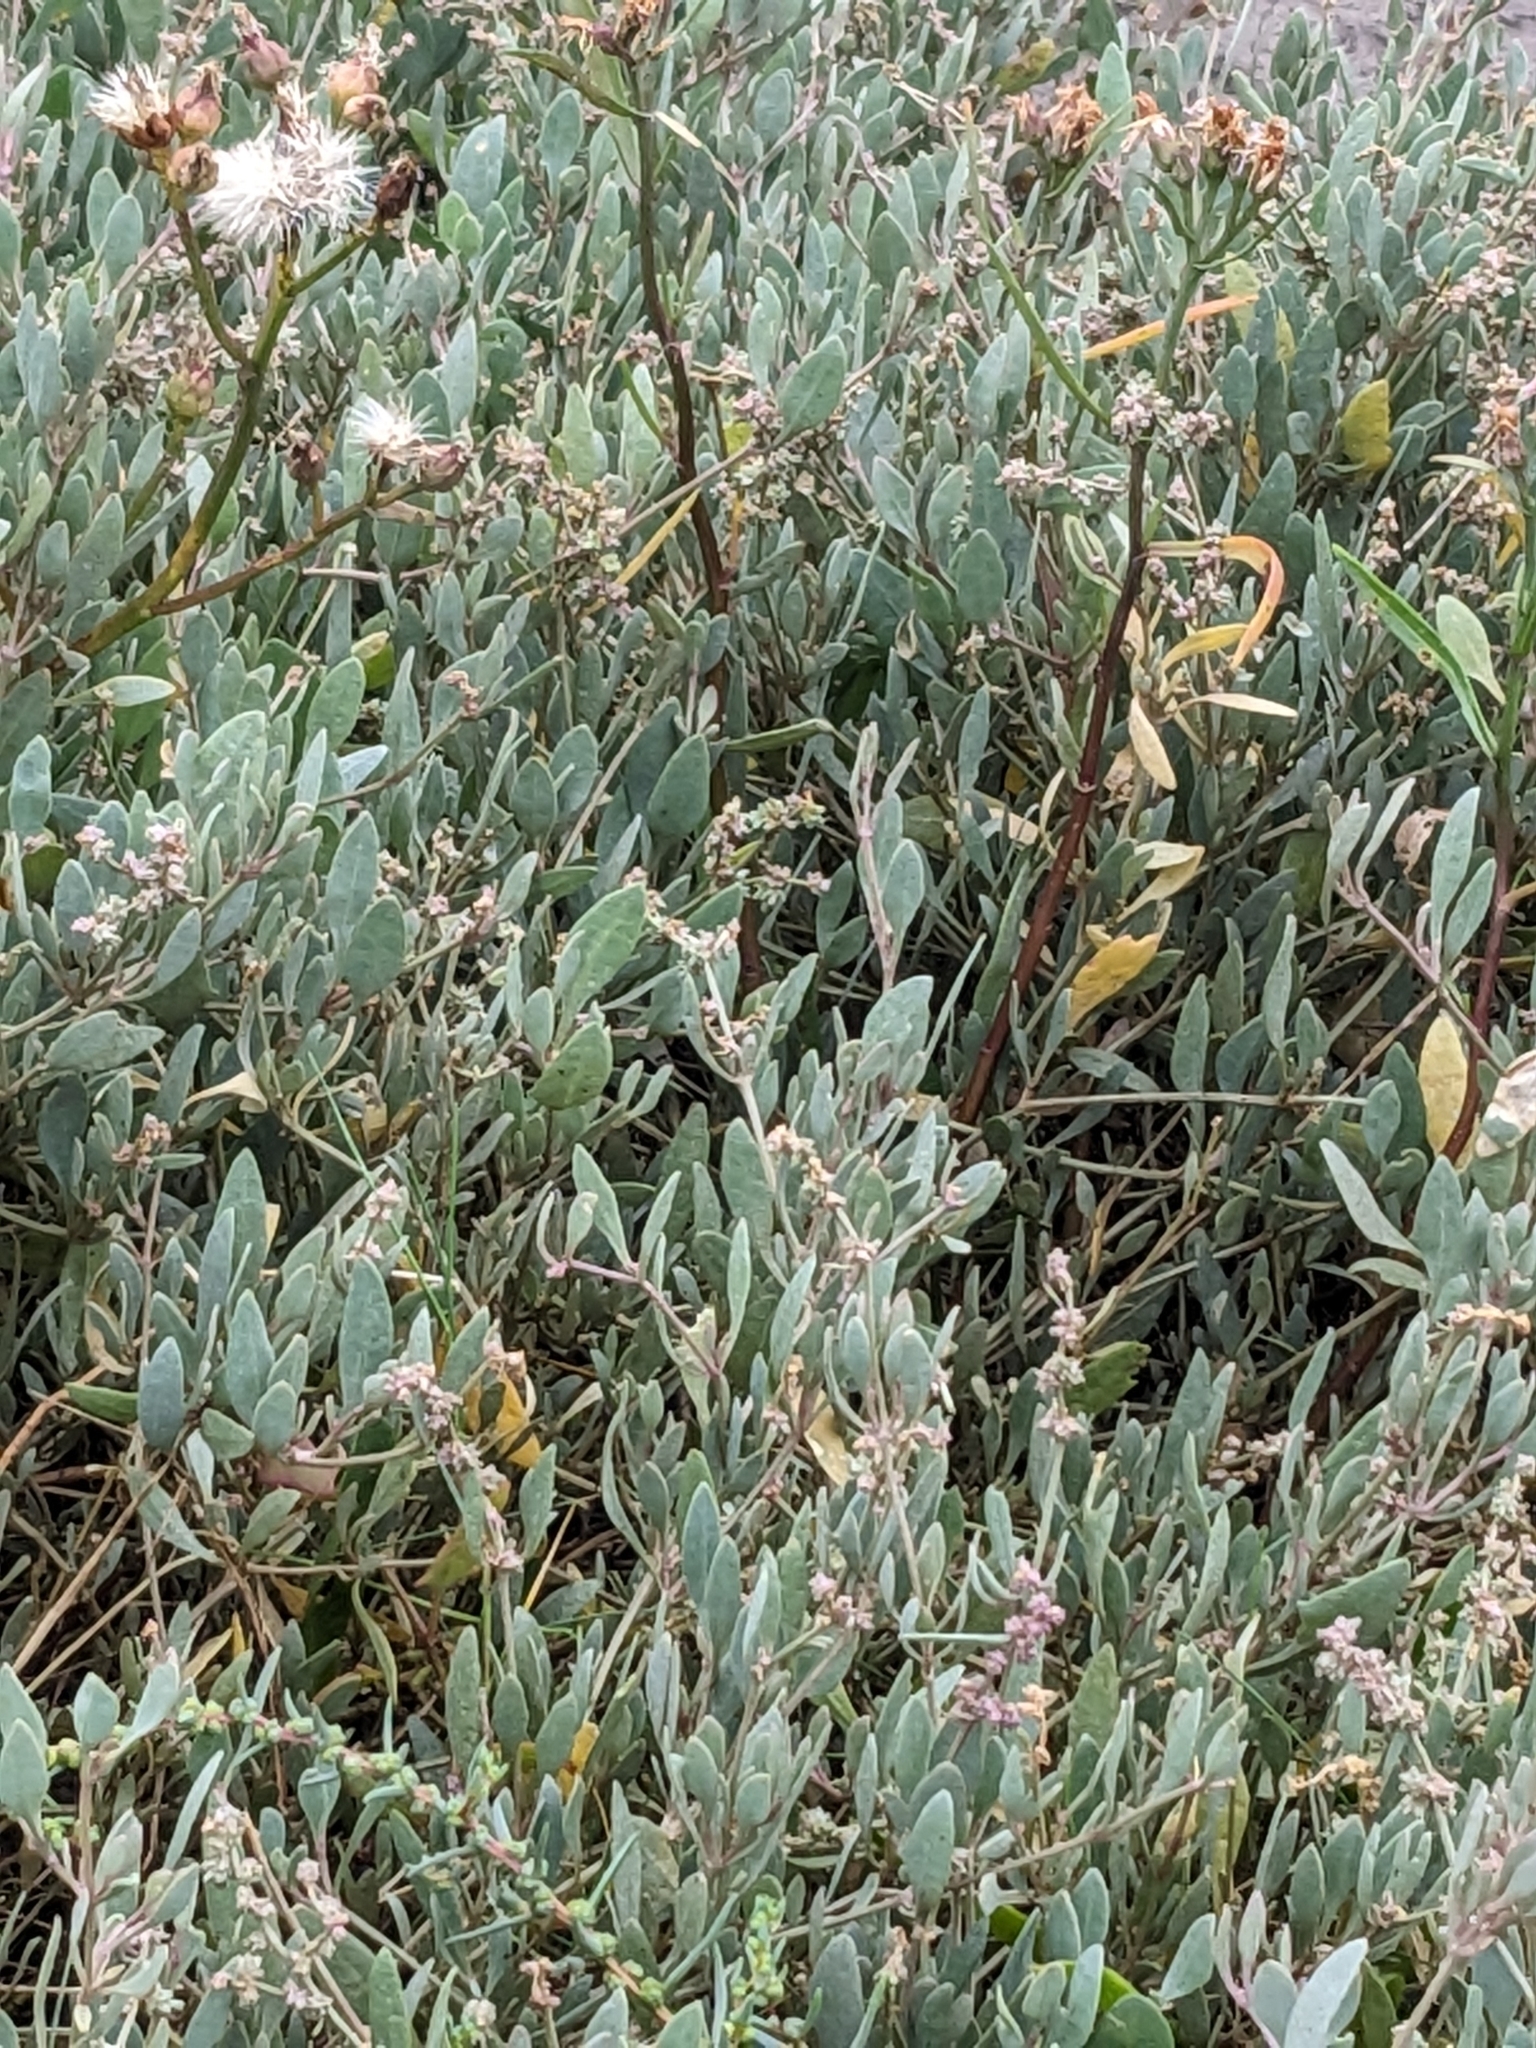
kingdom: Plantae
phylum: Tracheophyta
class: Magnoliopsida
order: Caryophyllales
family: Amaranthaceae
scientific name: Amaranthaceae
